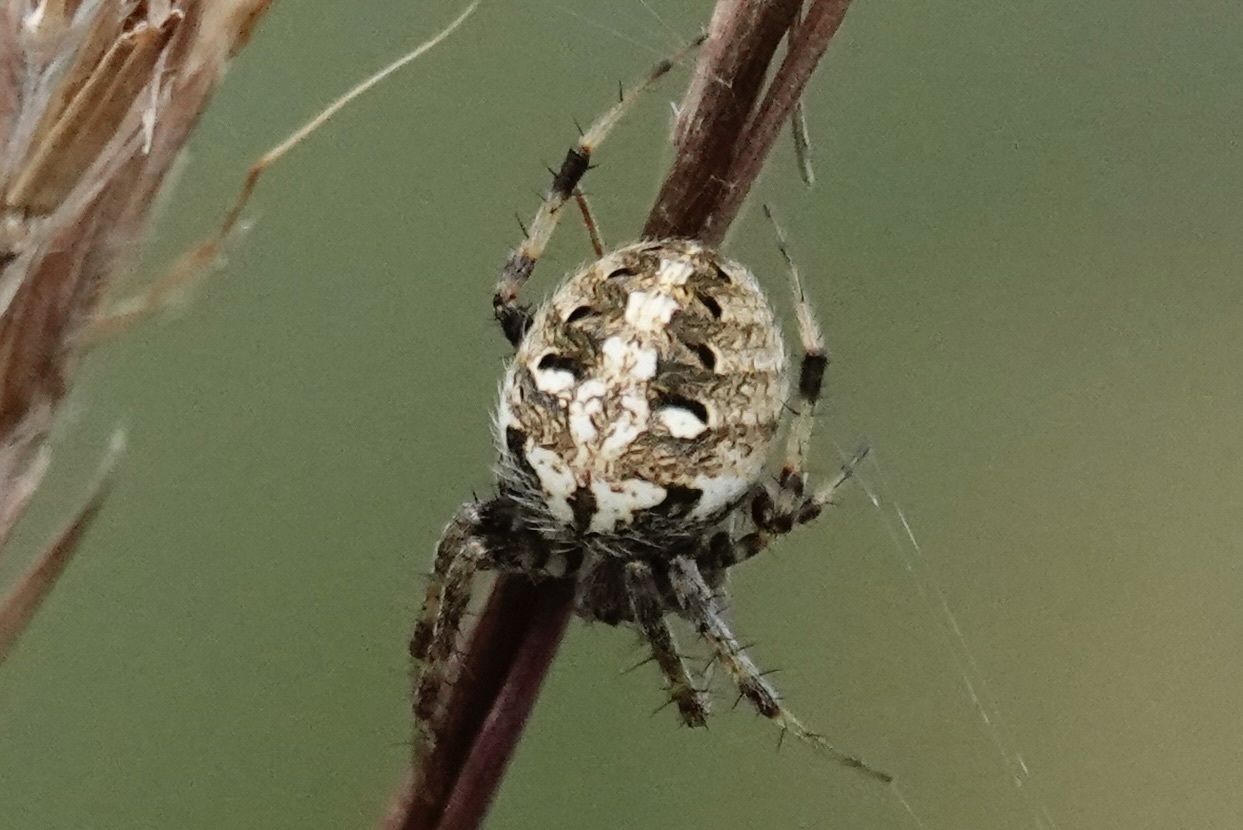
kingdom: Animalia
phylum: Arthropoda
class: Arachnida
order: Araneae
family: Araneidae
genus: Neoscona
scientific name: Neoscona arabesca
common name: Orb weavers
